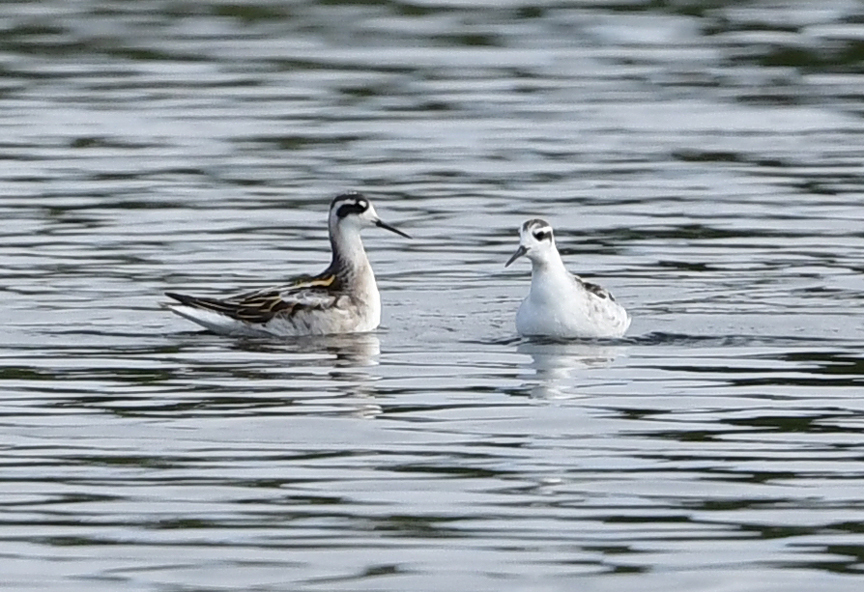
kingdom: Animalia
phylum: Chordata
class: Aves
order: Charadriiformes
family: Scolopacidae
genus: Phalaropus
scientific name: Phalaropus lobatus
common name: Red-necked phalarope
